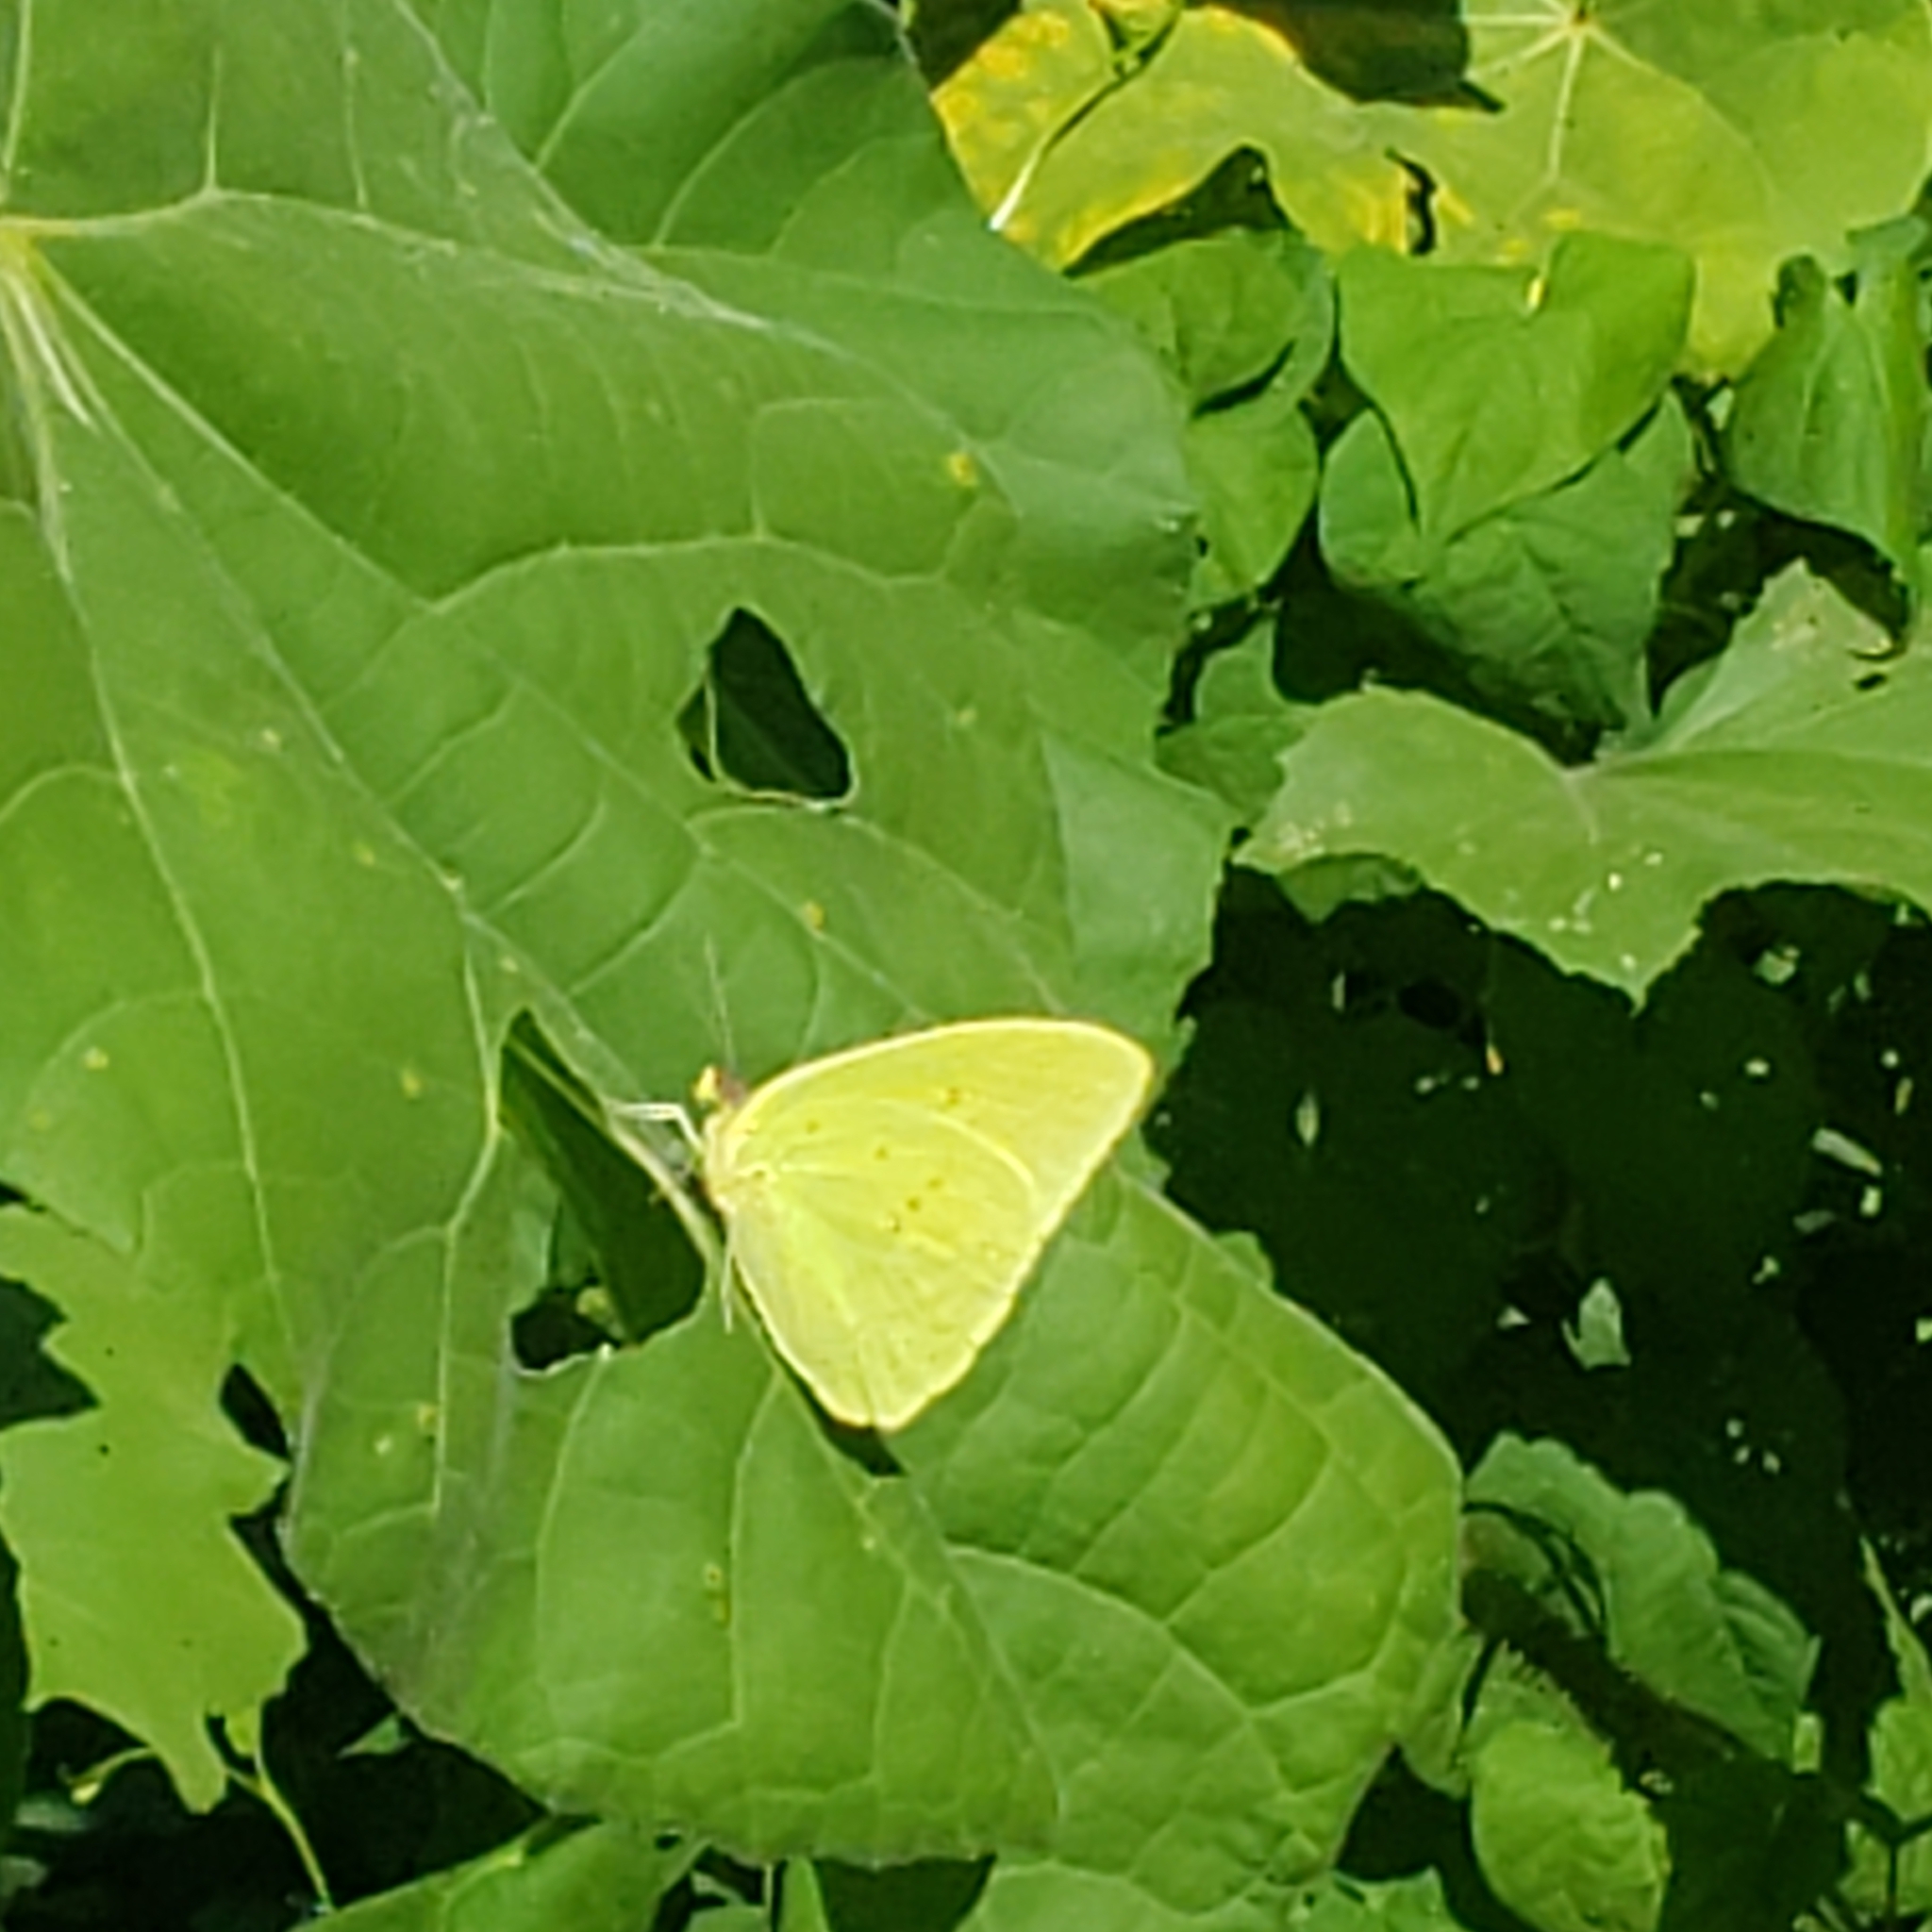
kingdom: Animalia
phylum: Arthropoda
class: Insecta
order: Lepidoptera
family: Pieridae
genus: Phoebis
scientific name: Phoebis sennae
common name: Cloudless sulphur
